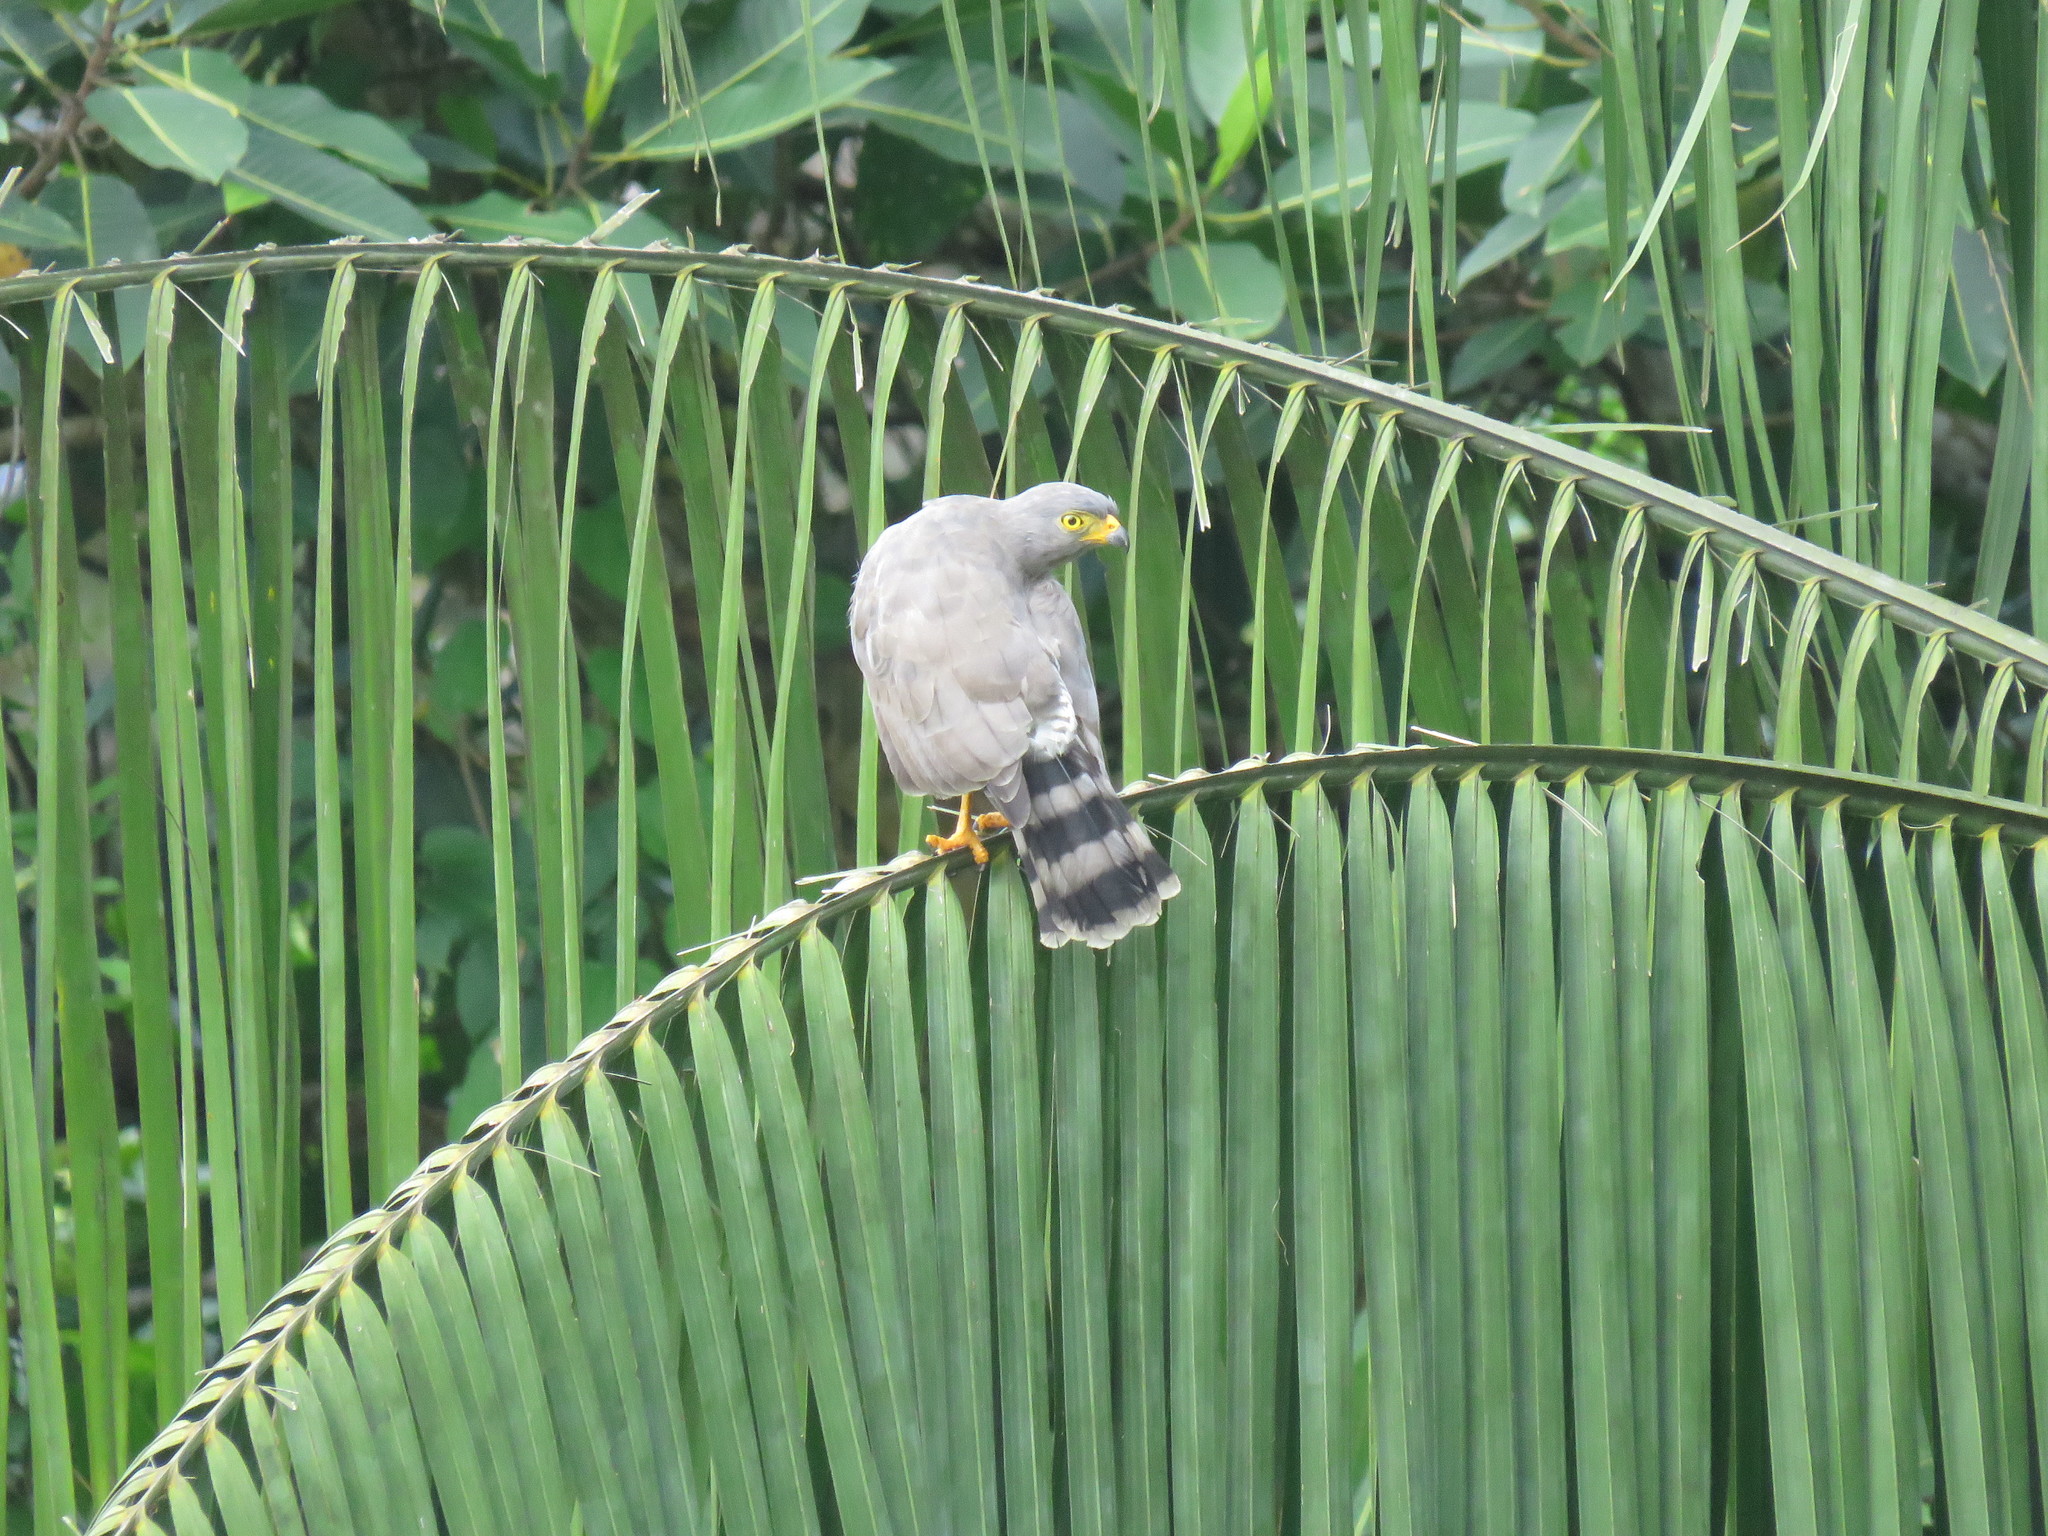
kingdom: Animalia
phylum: Chordata
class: Aves
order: Accipitriformes
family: Accipitridae
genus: Rupornis
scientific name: Rupornis magnirostris
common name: Roadside hawk
